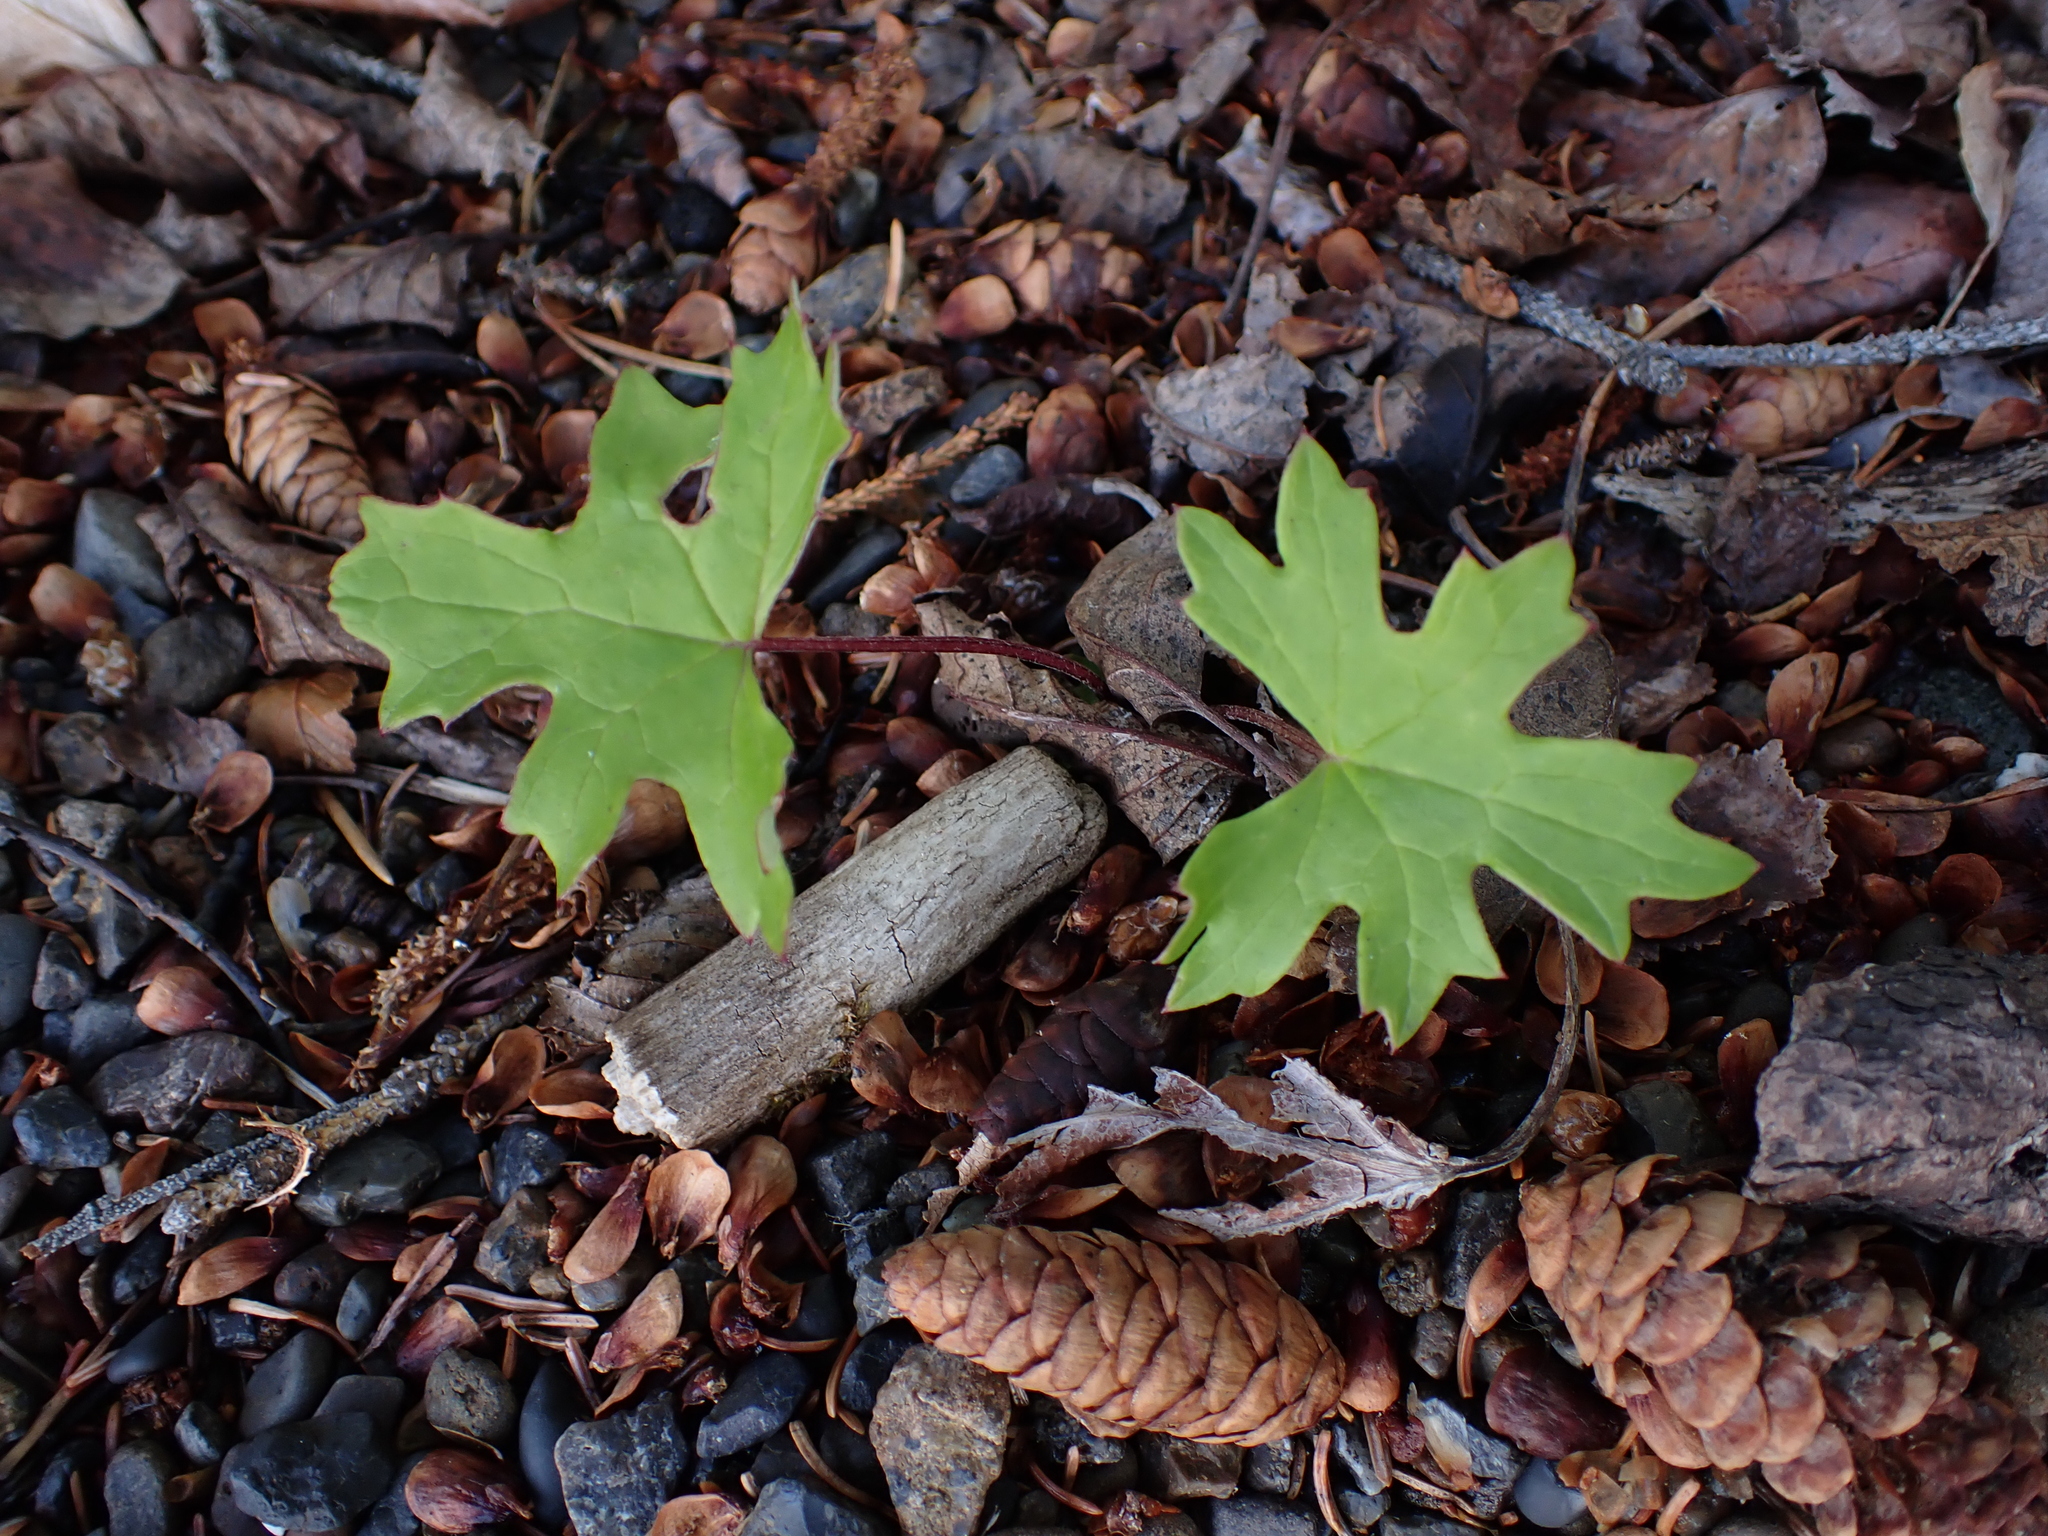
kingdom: Plantae
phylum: Tracheophyta
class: Magnoliopsida
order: Asterales
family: Asteraceae
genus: Petasites
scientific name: Petasites frigidus
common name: Arctic butterbur
